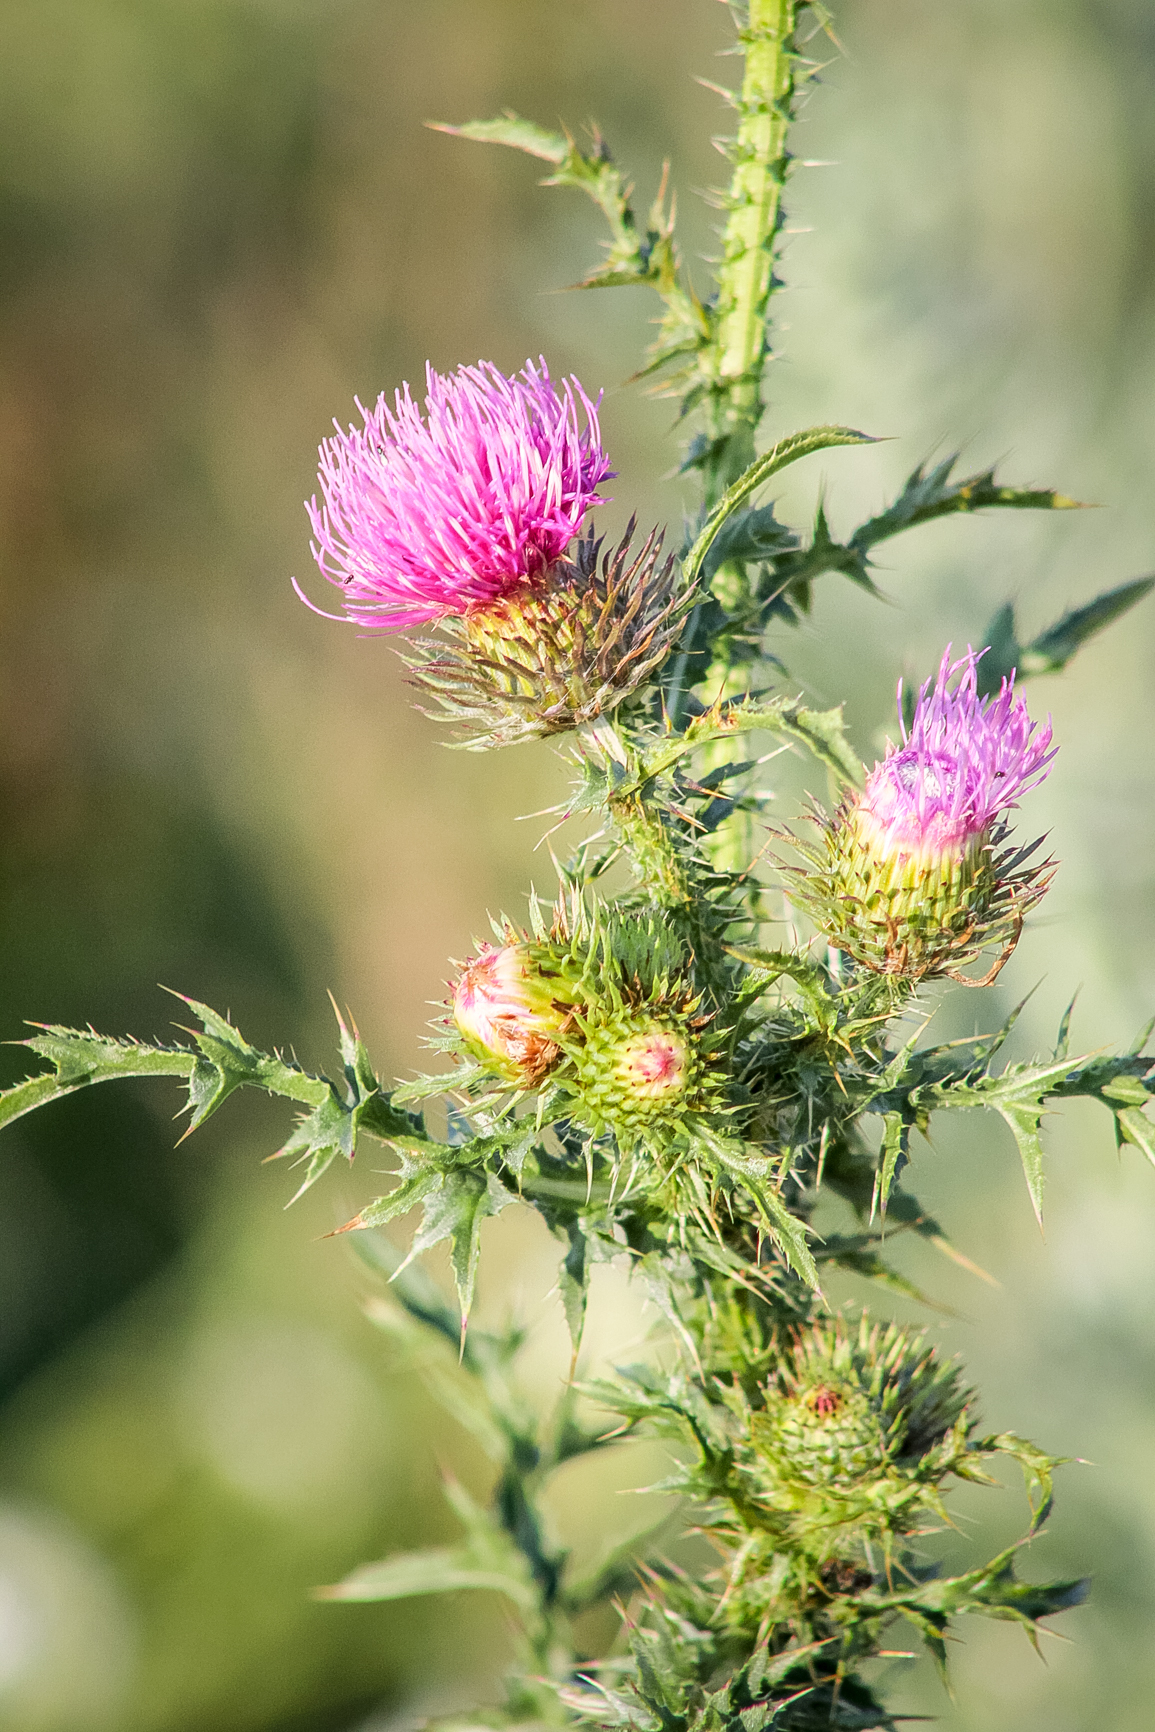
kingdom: Plantae
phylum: Tracheophyta
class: Magnoliopsida
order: Asterales
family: Asteraceae
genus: Carduus
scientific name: Carduus acanthoides
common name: Plumeless thistle
